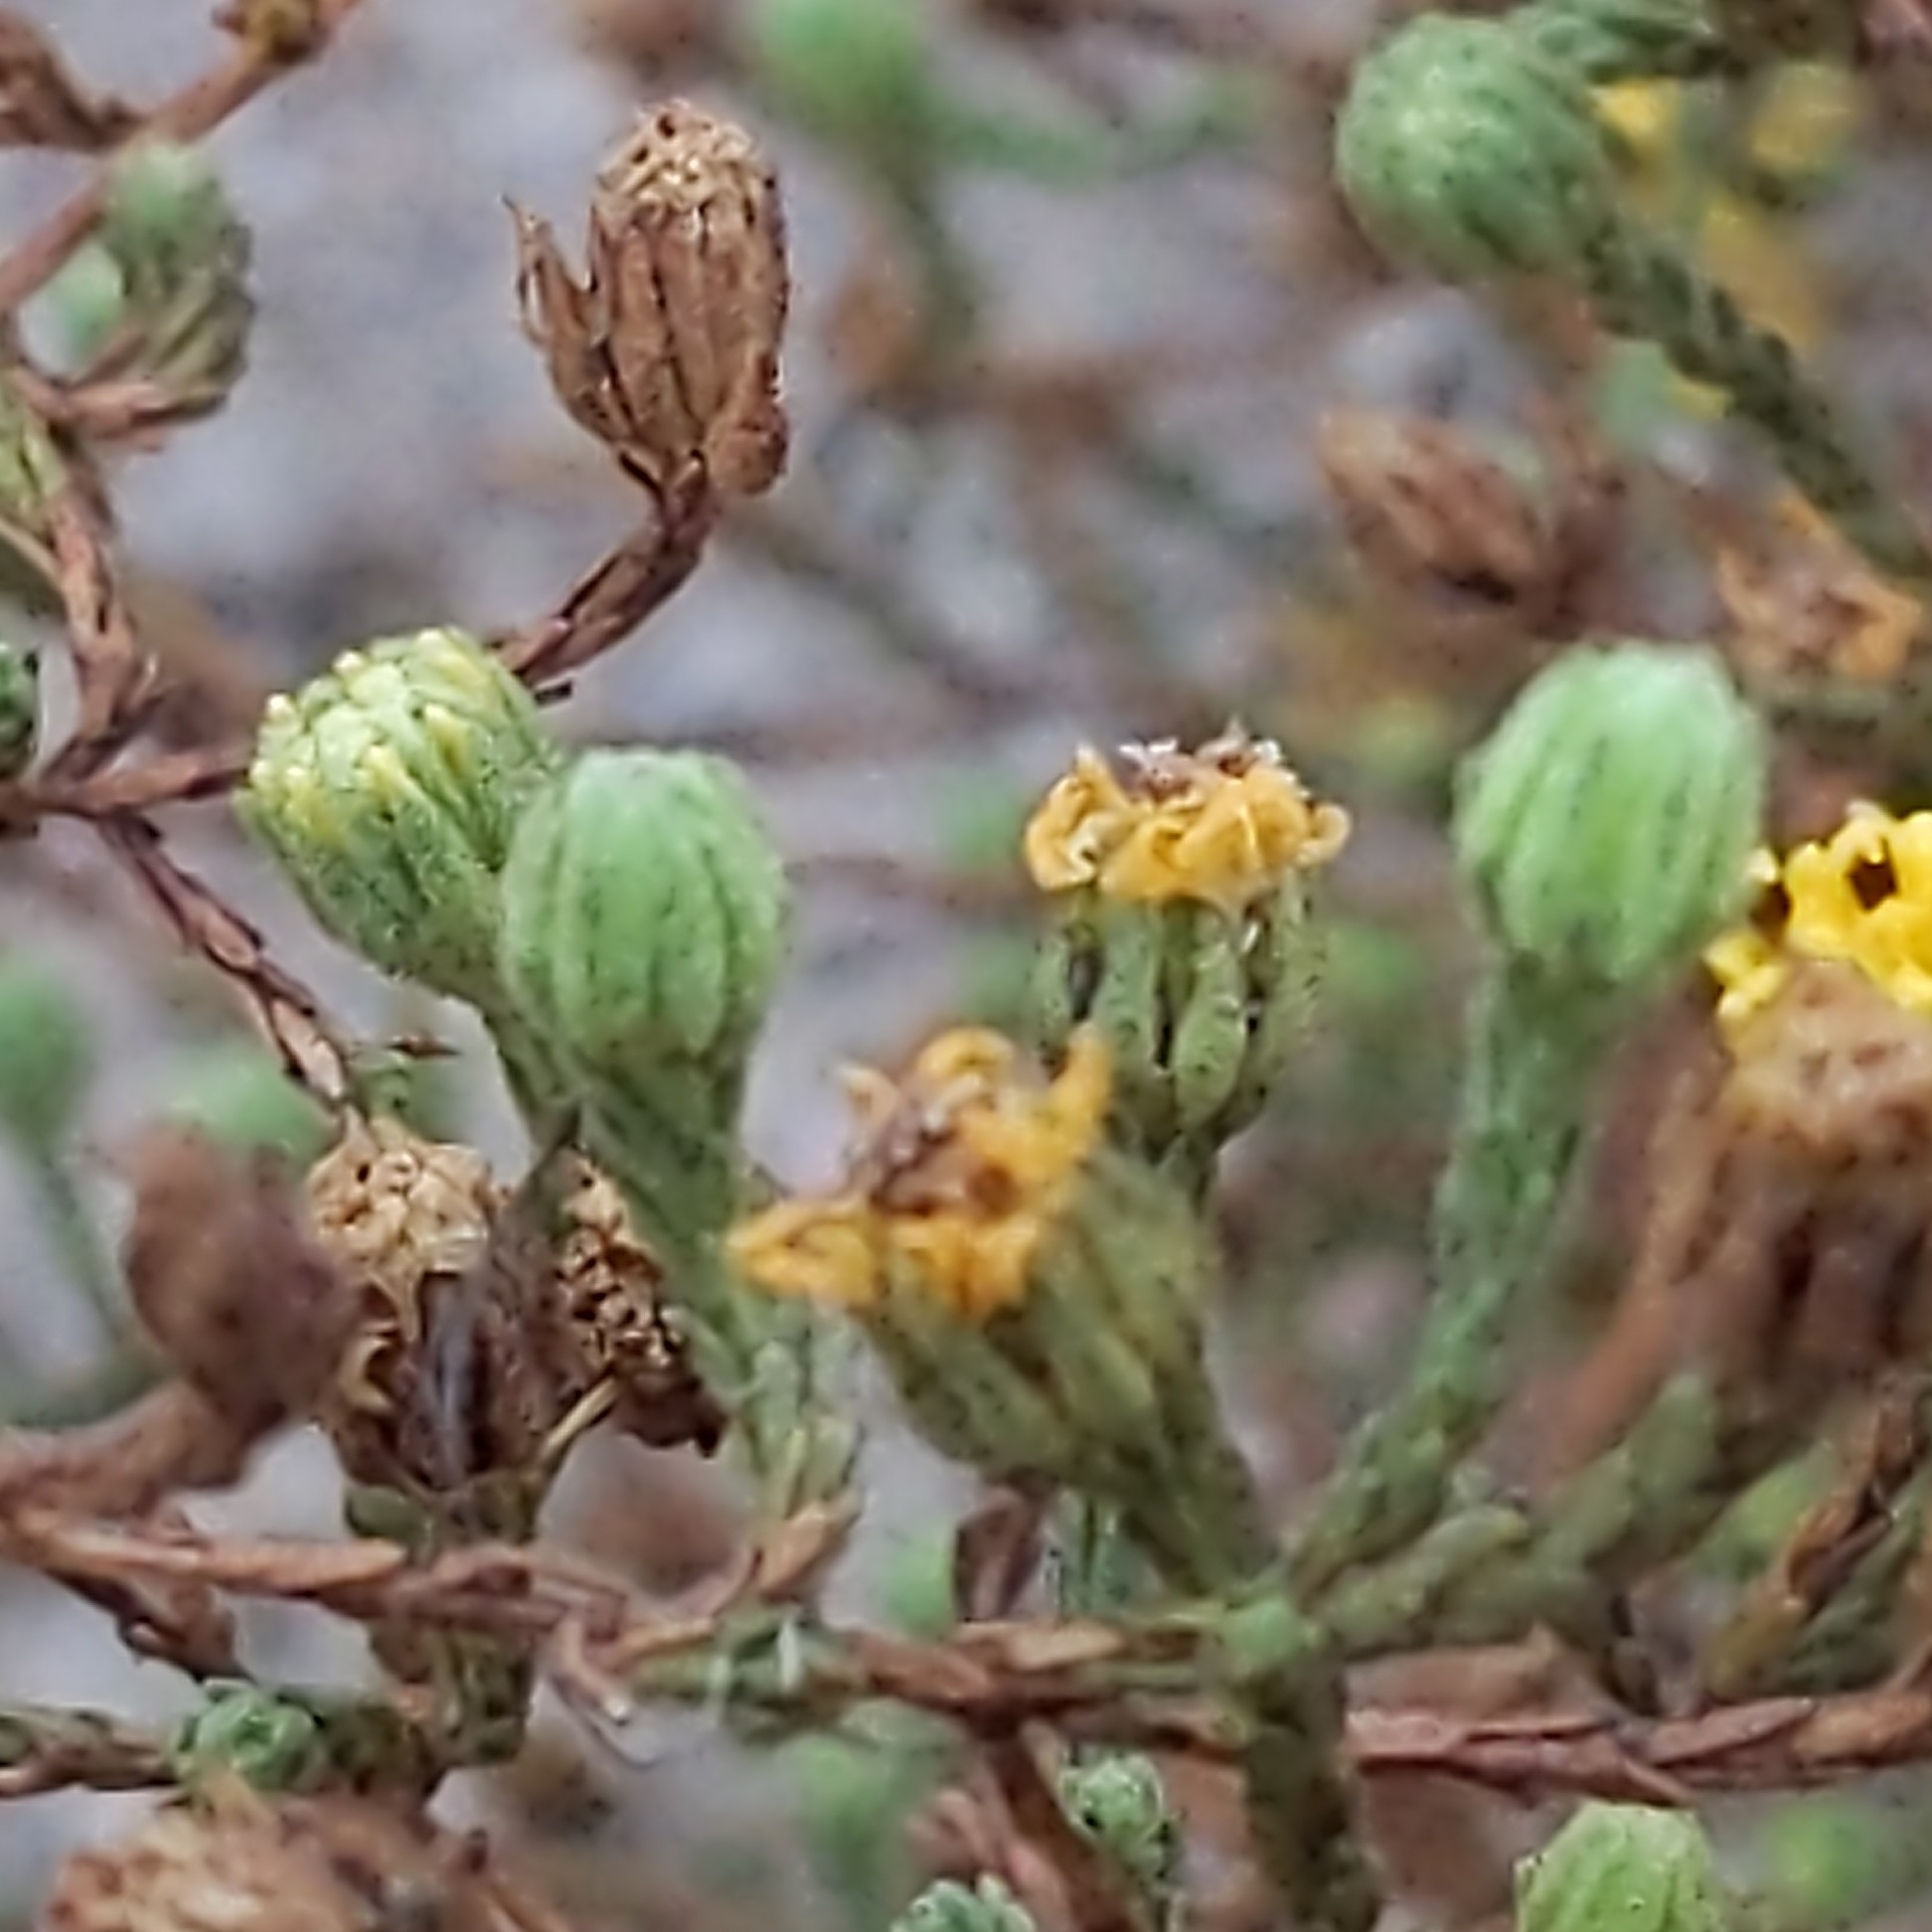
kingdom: Plantae
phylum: Tracheophyta
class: Magnoliopsida
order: Asterales
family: Asteraceae
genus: Deinandra
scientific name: Deinandra paniculata
